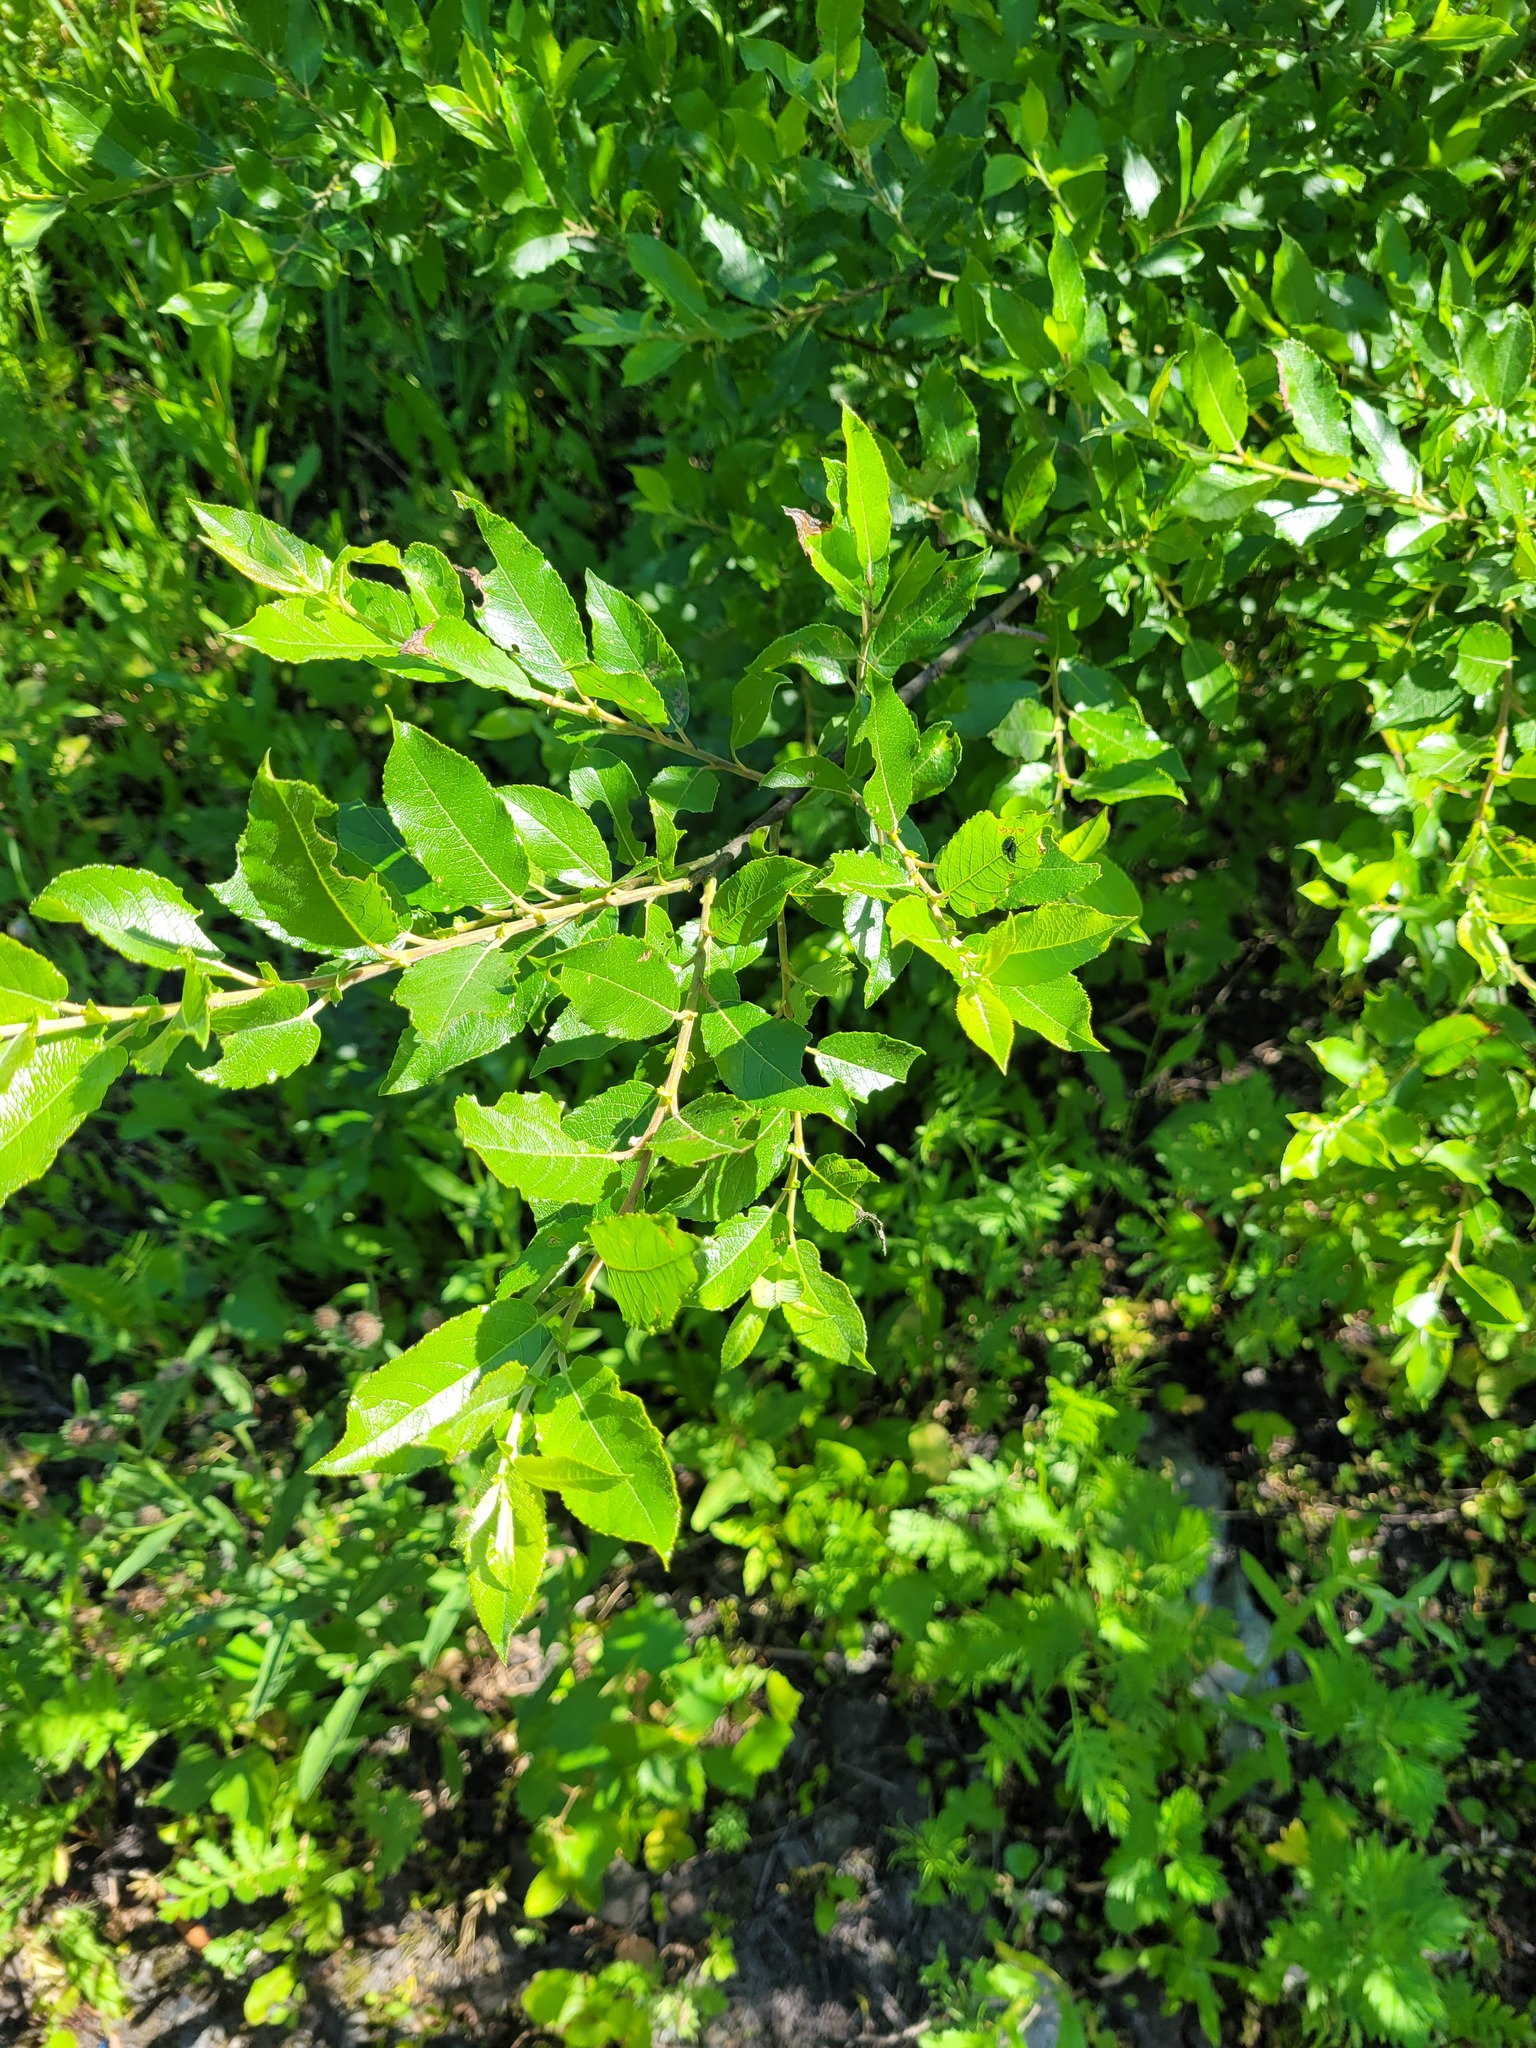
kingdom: Plantae
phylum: Tracheophyta
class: Magnoliopsida
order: Malpighiales
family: Salicaceae
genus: Salix
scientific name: Salix myrsinifolia
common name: Dark-leaved willow
